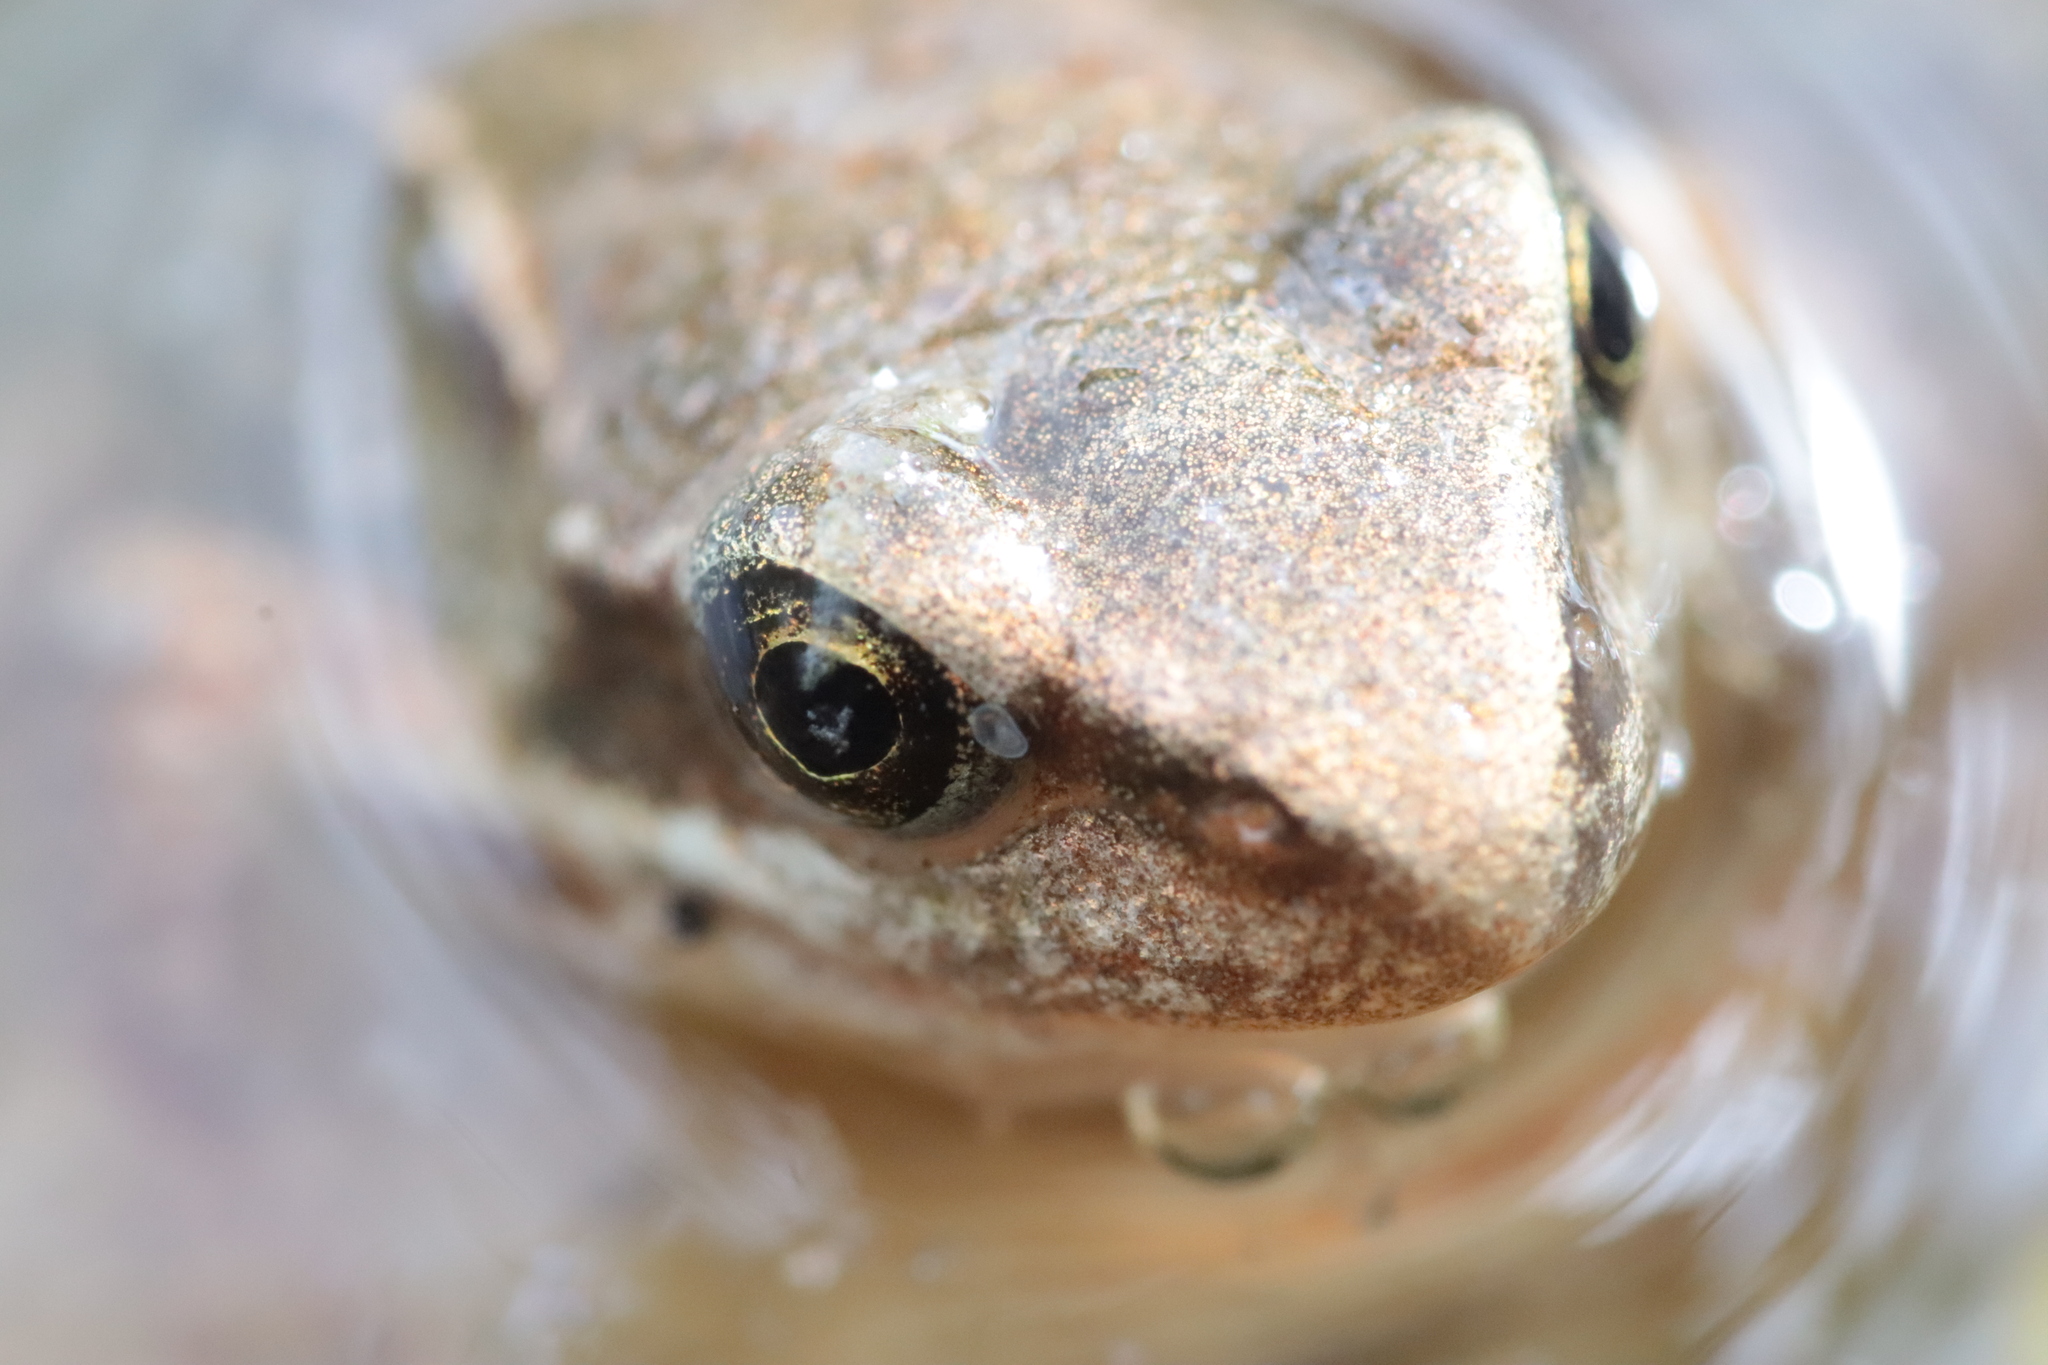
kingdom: Animalia
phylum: Chordata
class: Amphibia
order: Anura
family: Ranidae
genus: Rana
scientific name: Rana temporaria
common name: Common frog
